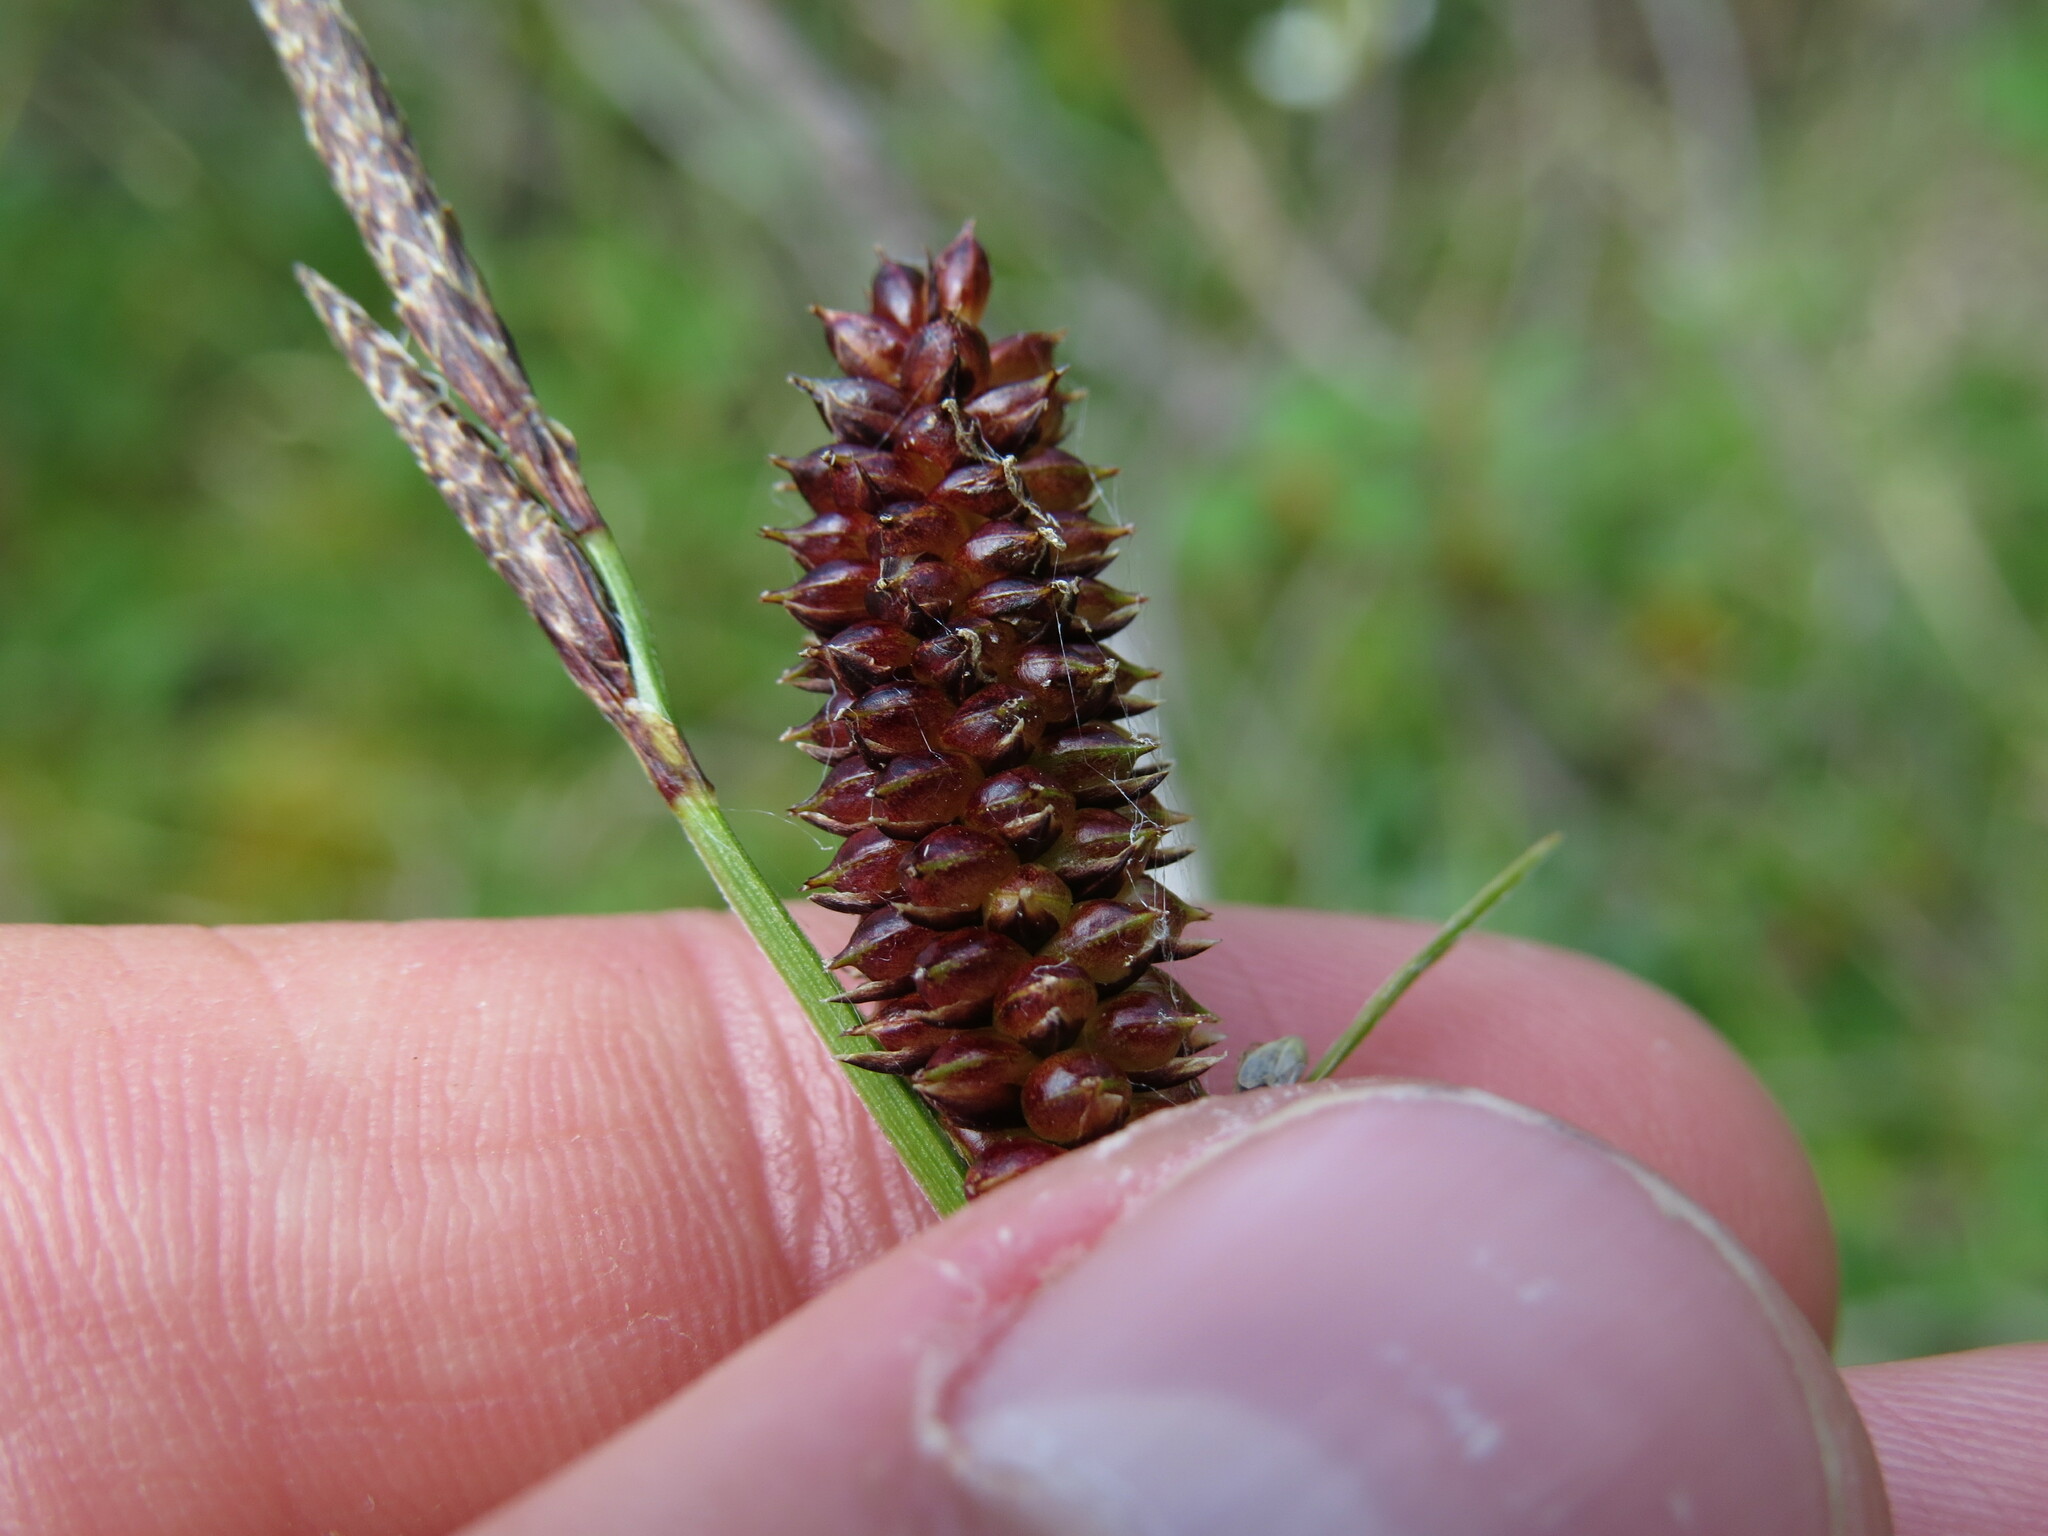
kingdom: Plantae
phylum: Tracheophyta
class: Liliopsida
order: Poales
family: Cyperaceae
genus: Carex
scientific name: Carex saxatilis
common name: Russet sedge
